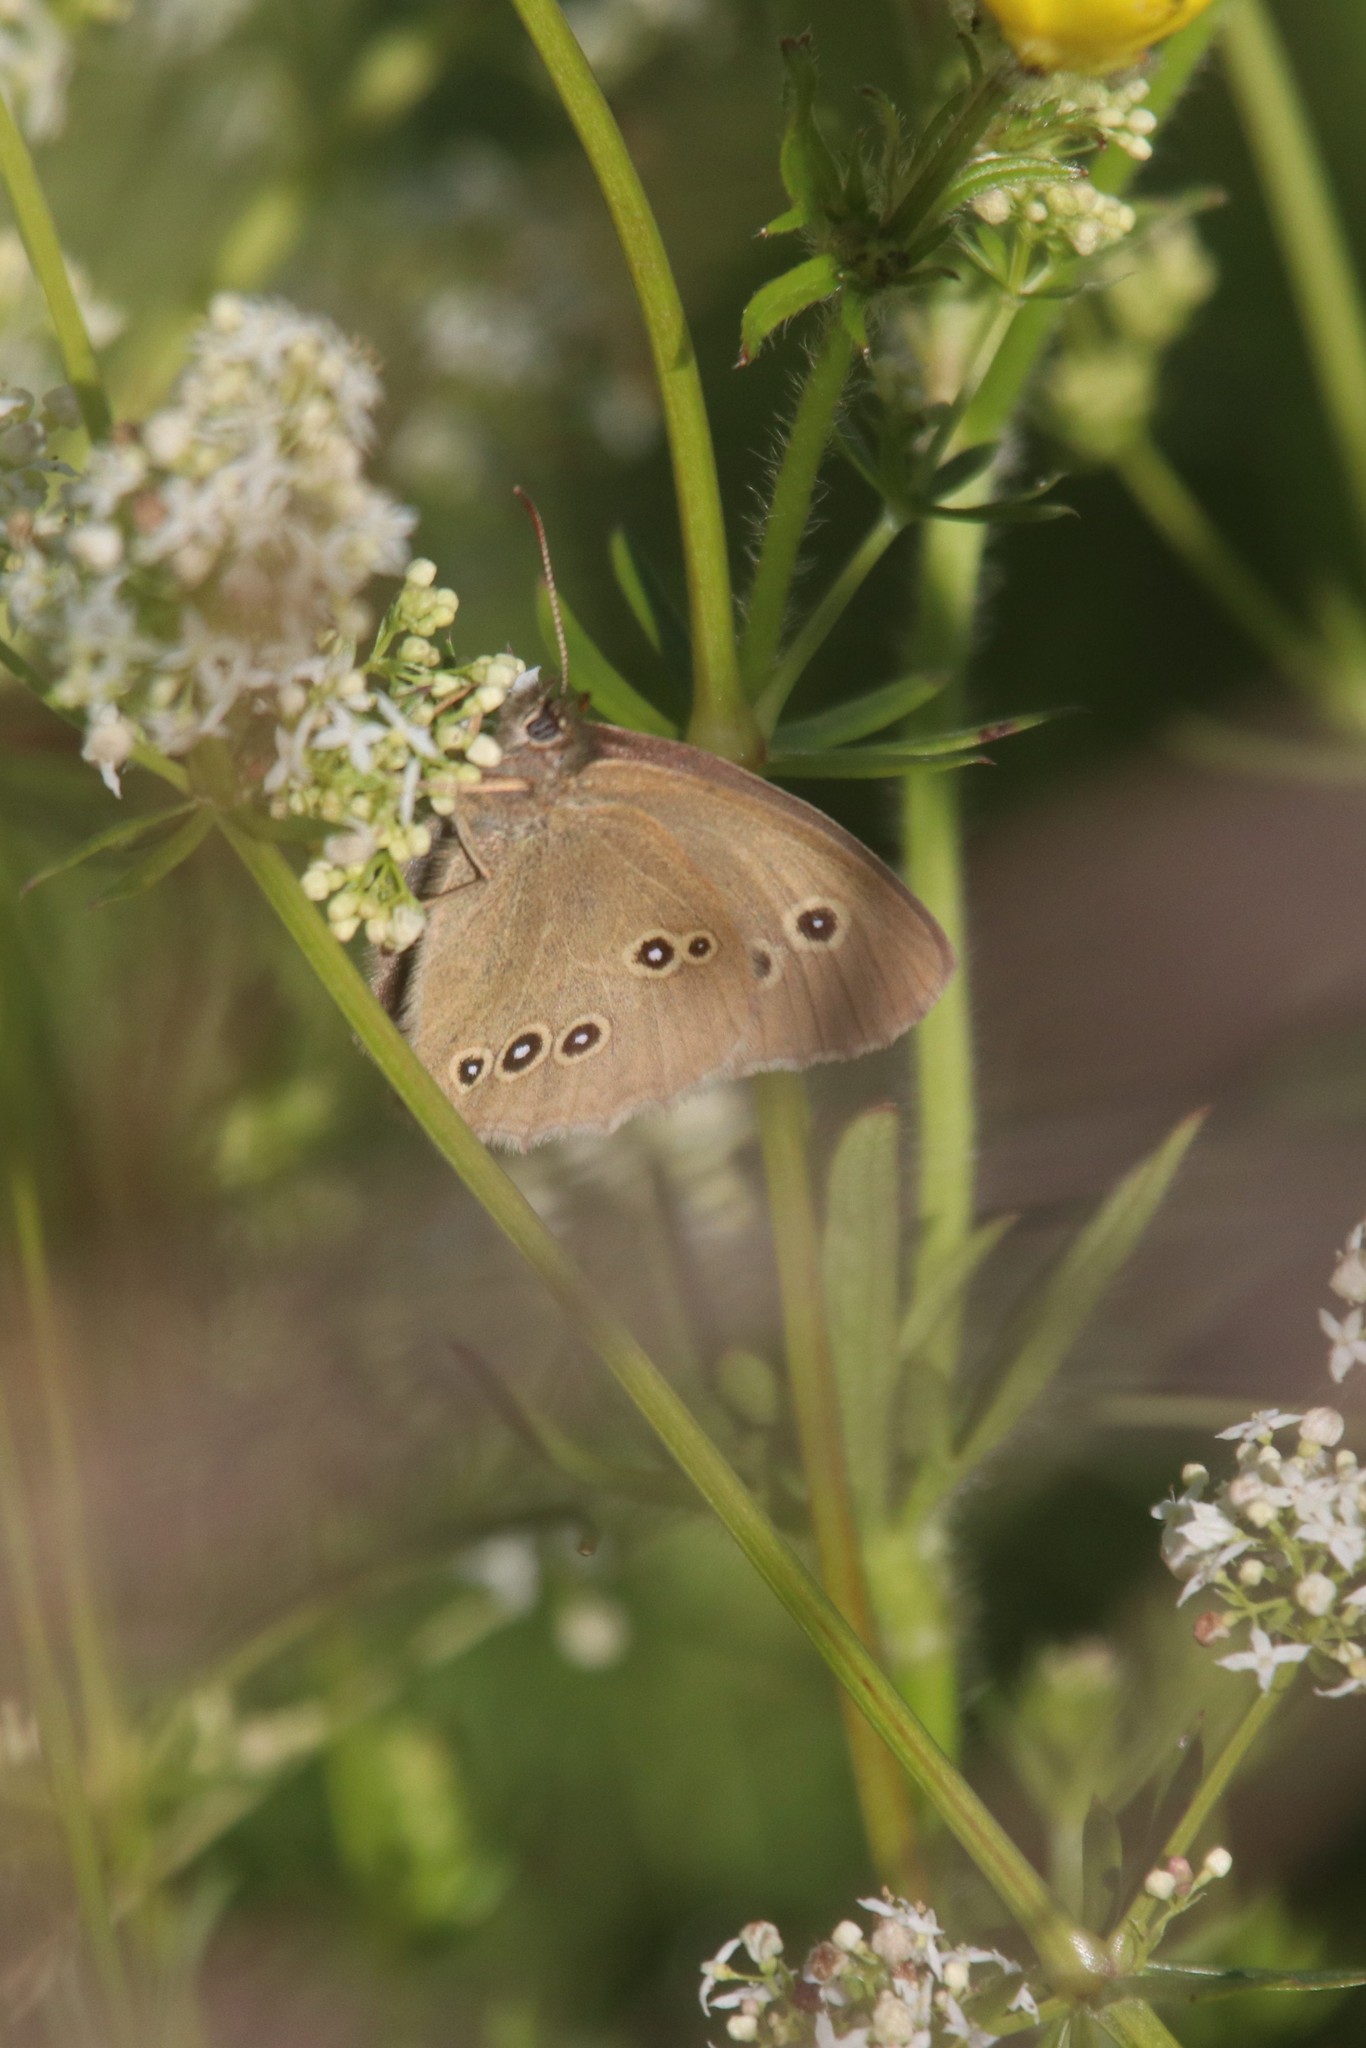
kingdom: Animalia
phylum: Arthropoda
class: Insecta
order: Lepidoptera
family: Nymphalidae
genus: Aphantopus
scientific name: Aphantopus hyperantus
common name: Ringlet
